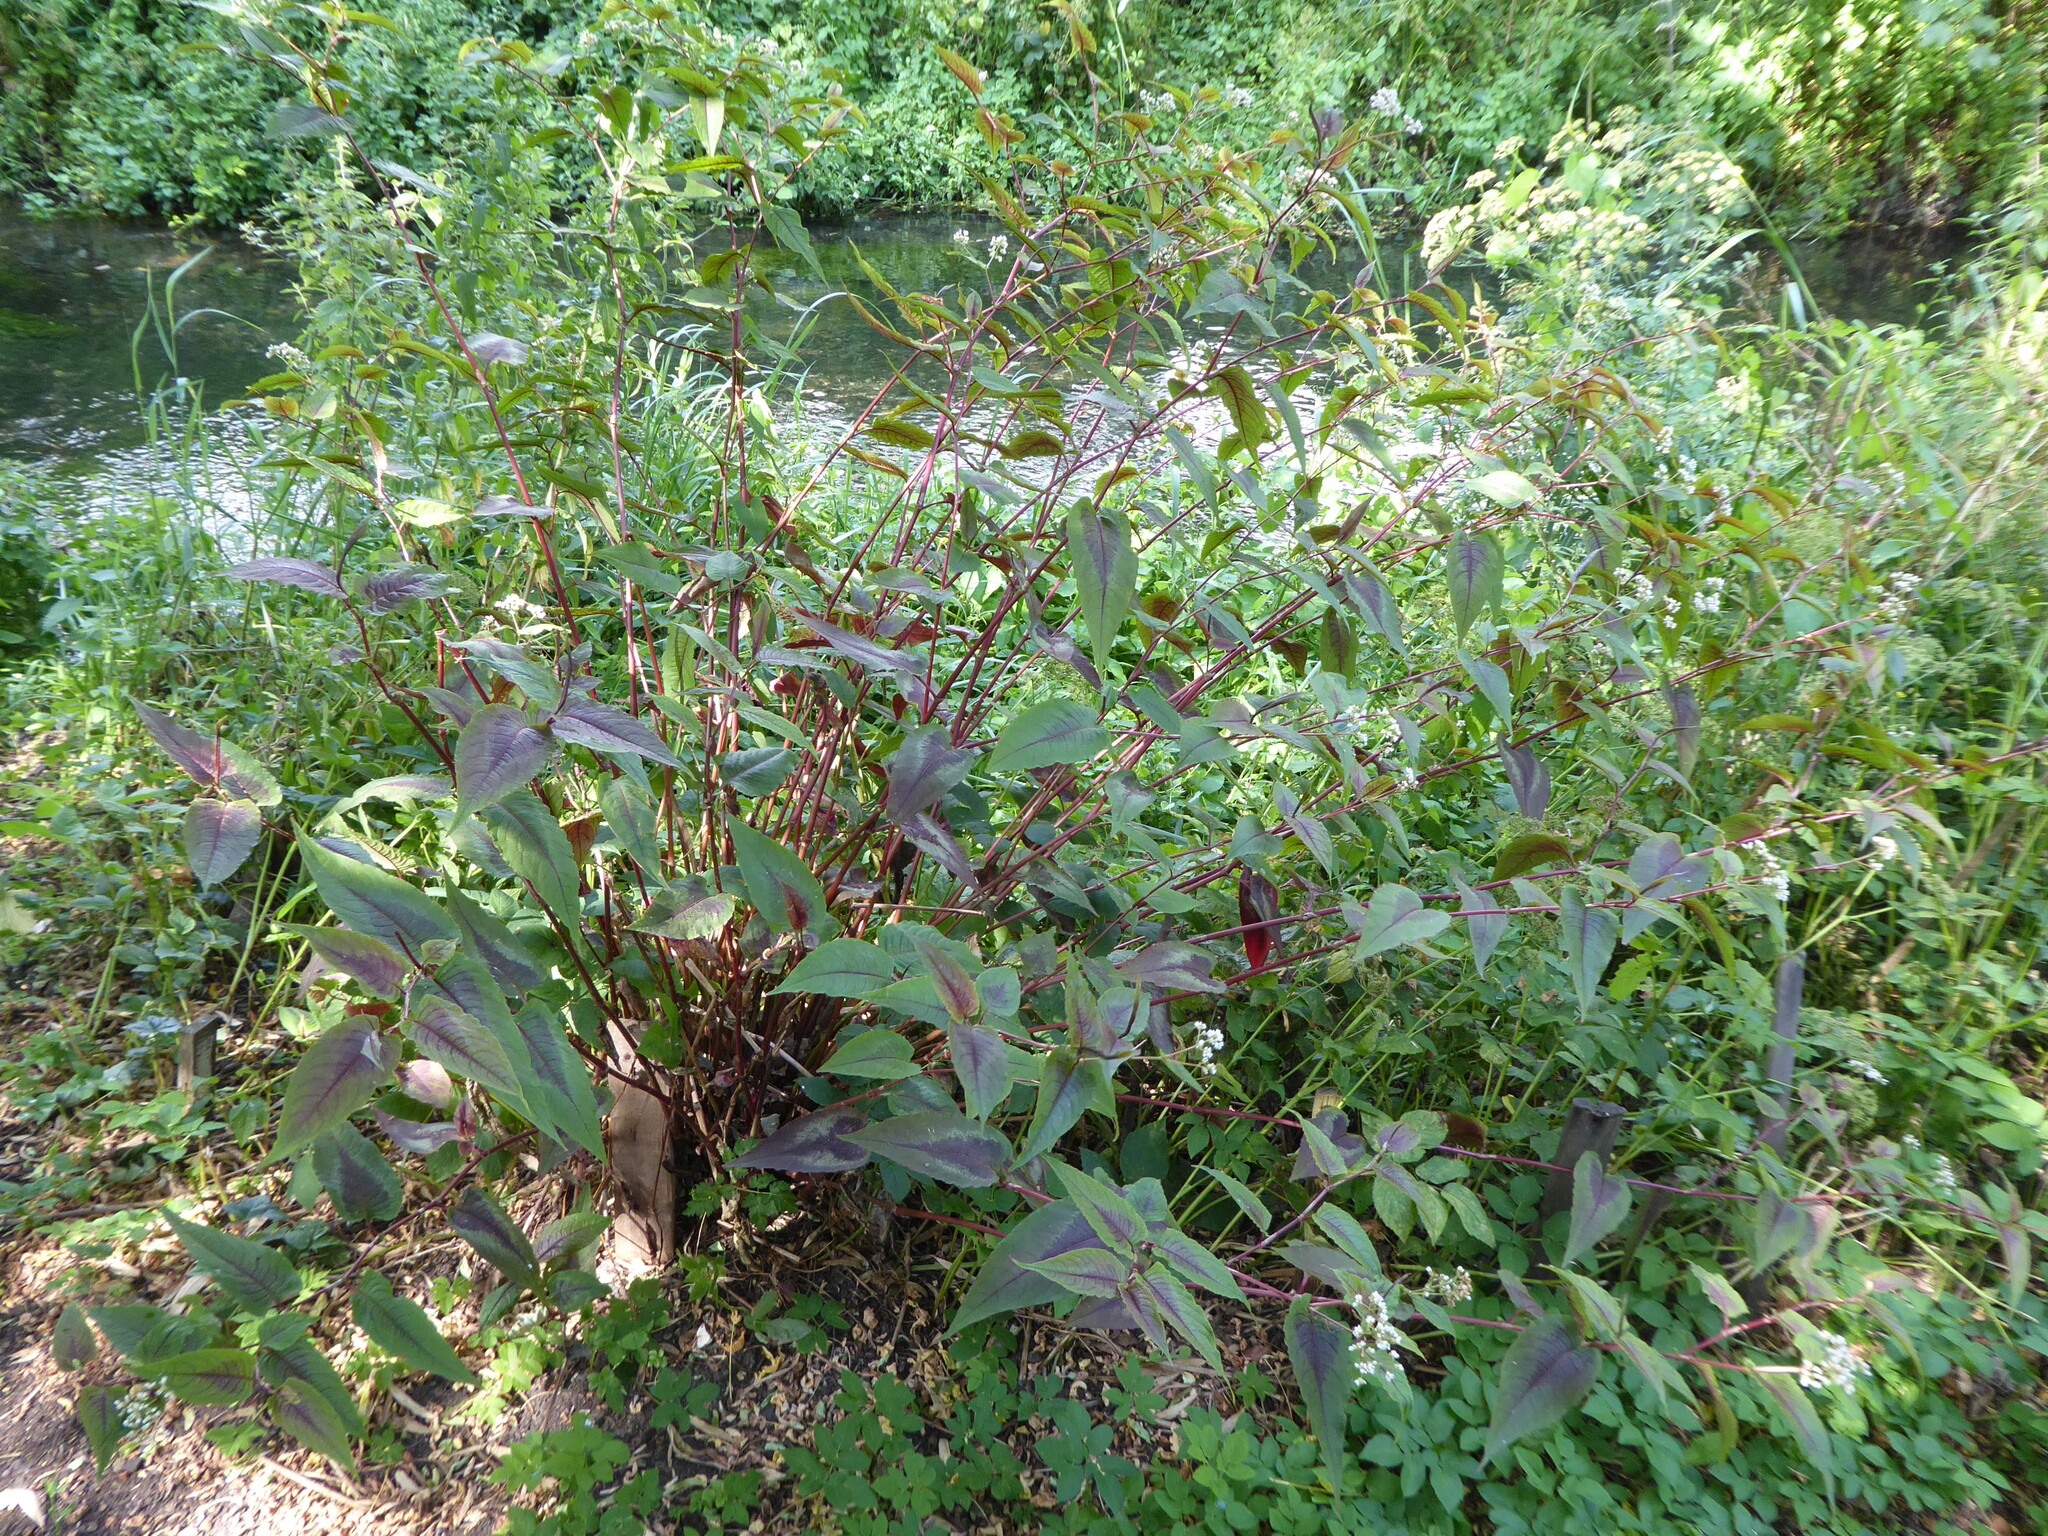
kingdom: Plantae
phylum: Tracheophyta
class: Magnoliopsida
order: Caryophyllales
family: Polygonaceae
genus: Persicaria
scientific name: Persicaria microcephala
